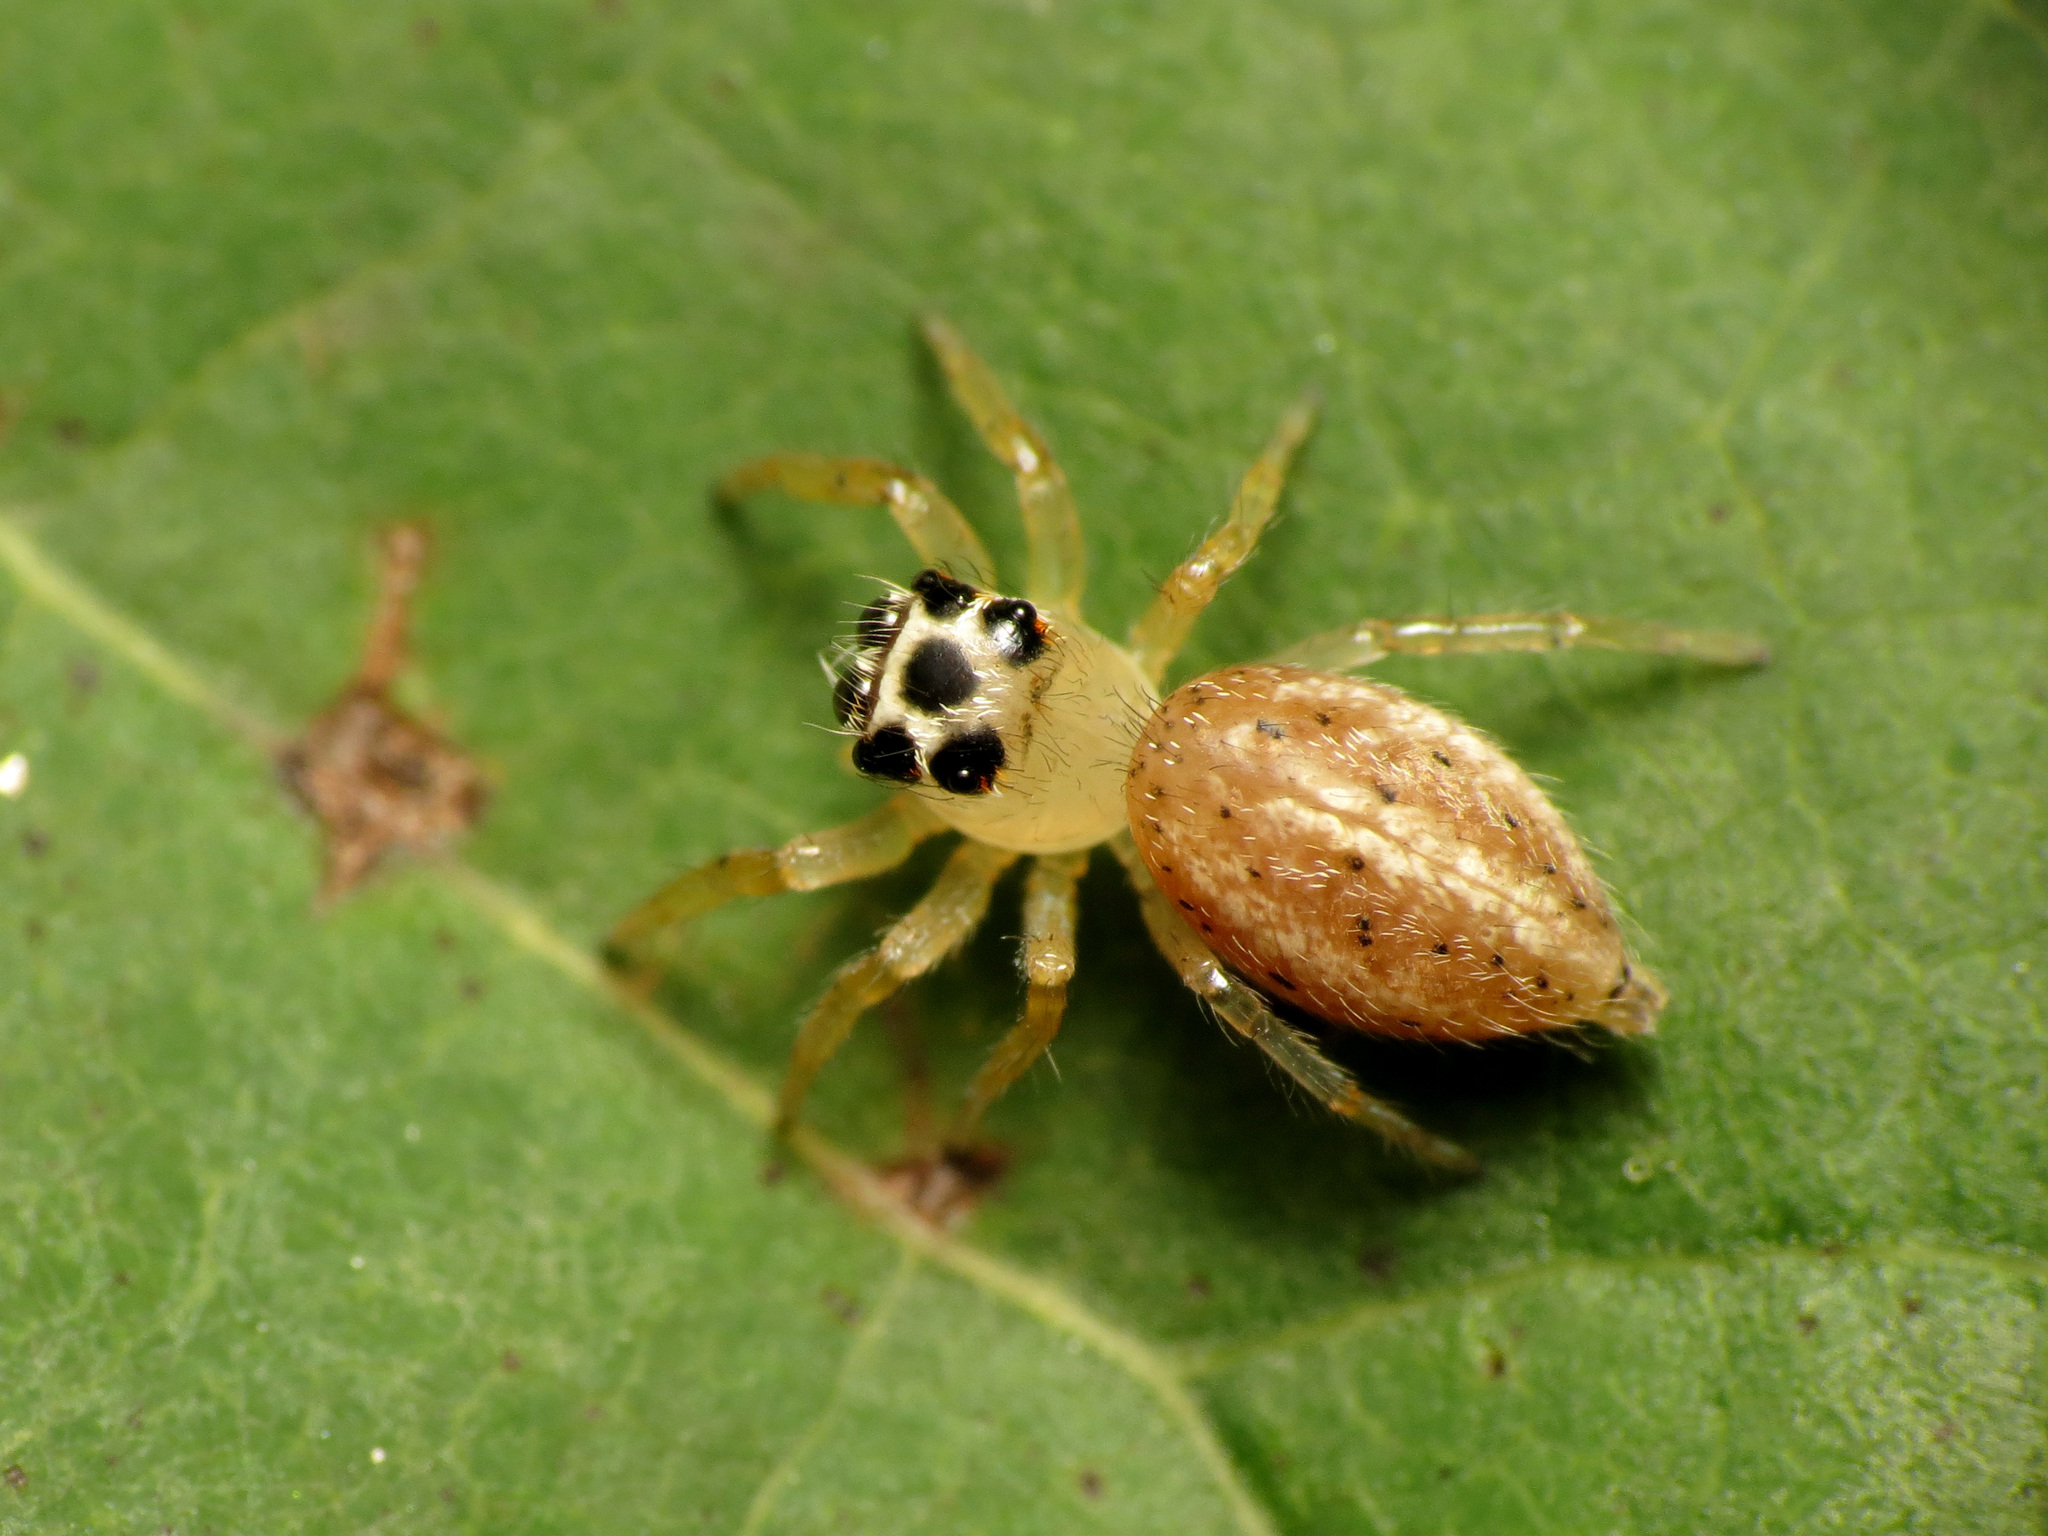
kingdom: Animalia
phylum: Arthropoda
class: Arachnida
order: Araneae
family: Salticidae
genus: Colonus
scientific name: Colonus sylvanus
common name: Jumping spiders
